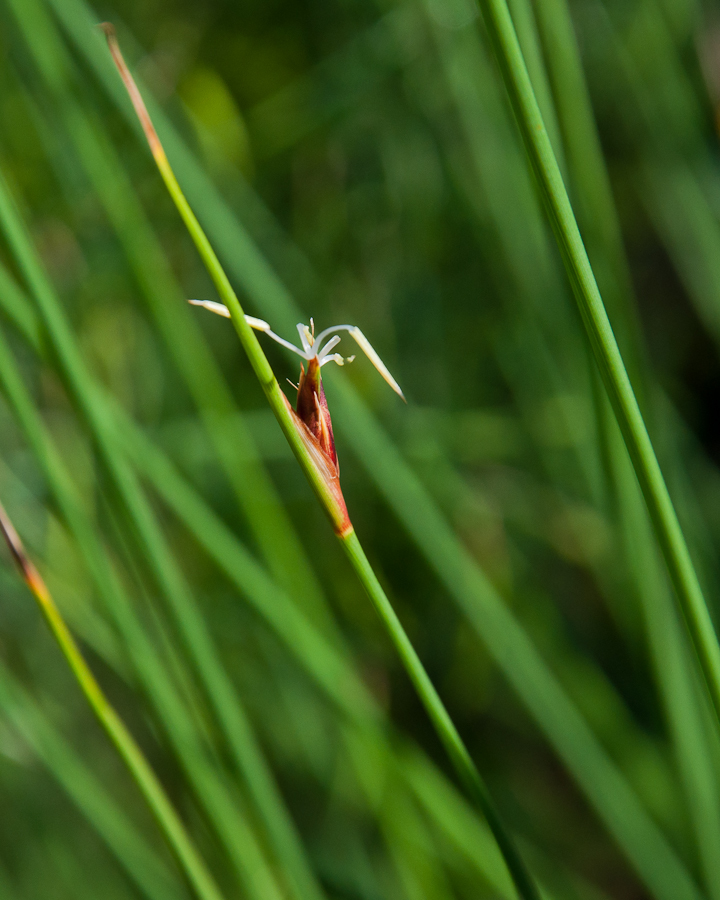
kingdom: Plantae
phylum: Tracheophyta
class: Liliopsida
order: Poales
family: Cyperaceae
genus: Neesenbeckia
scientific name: Neesenbeckia punctoria
